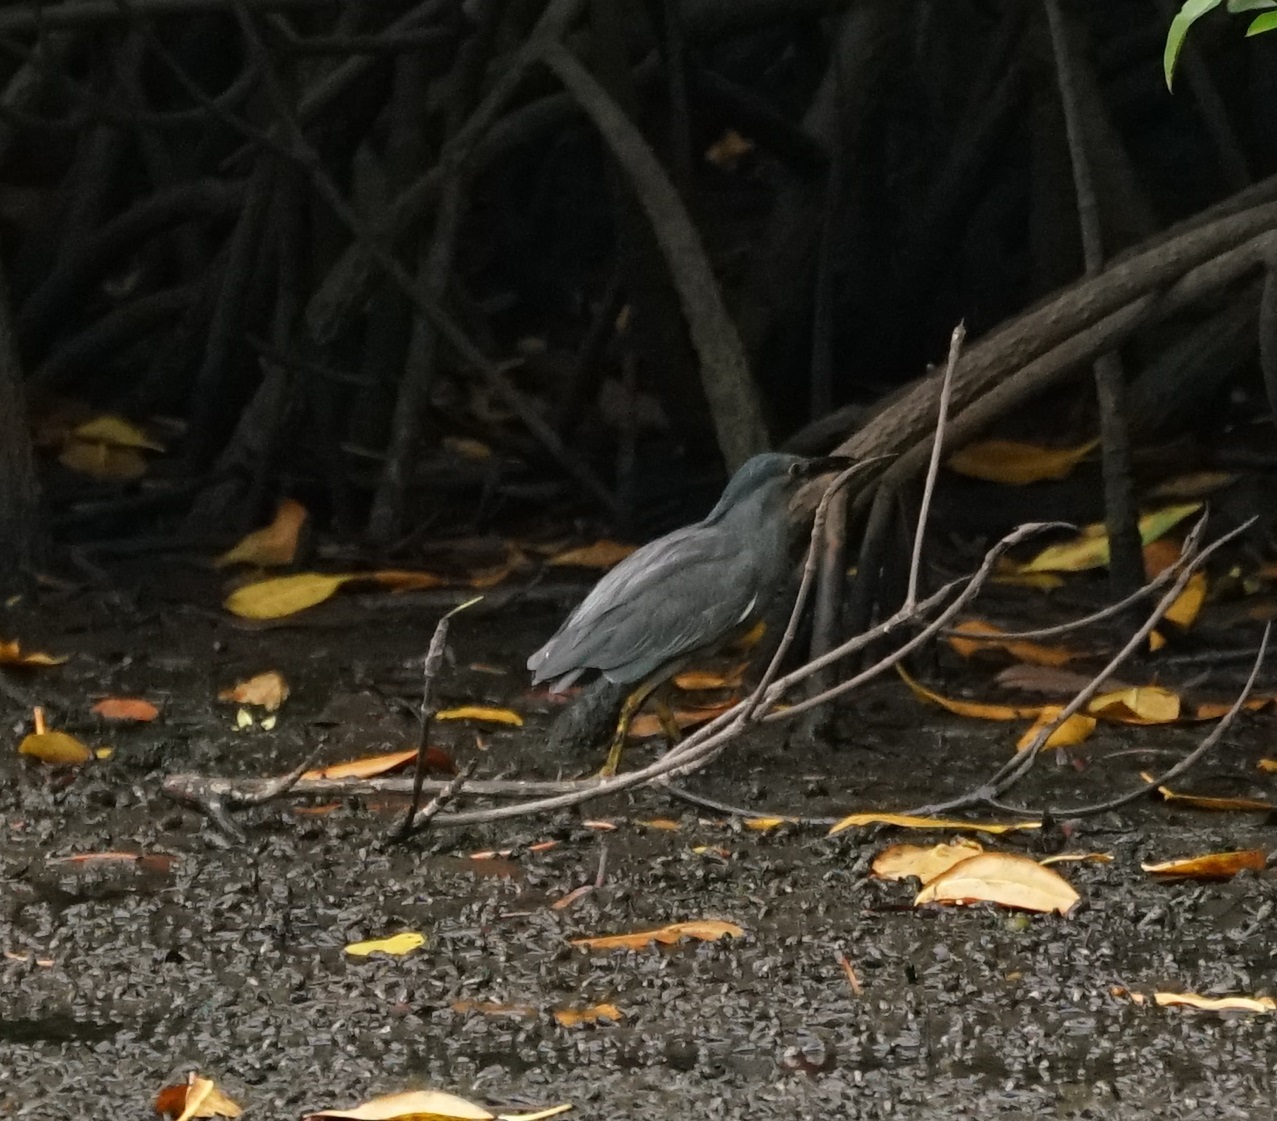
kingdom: Animalia
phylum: Chordata
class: Aves
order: Pelecaniformes
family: Ardeidae
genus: Butorides
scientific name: Butorides striata
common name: Striated heron
